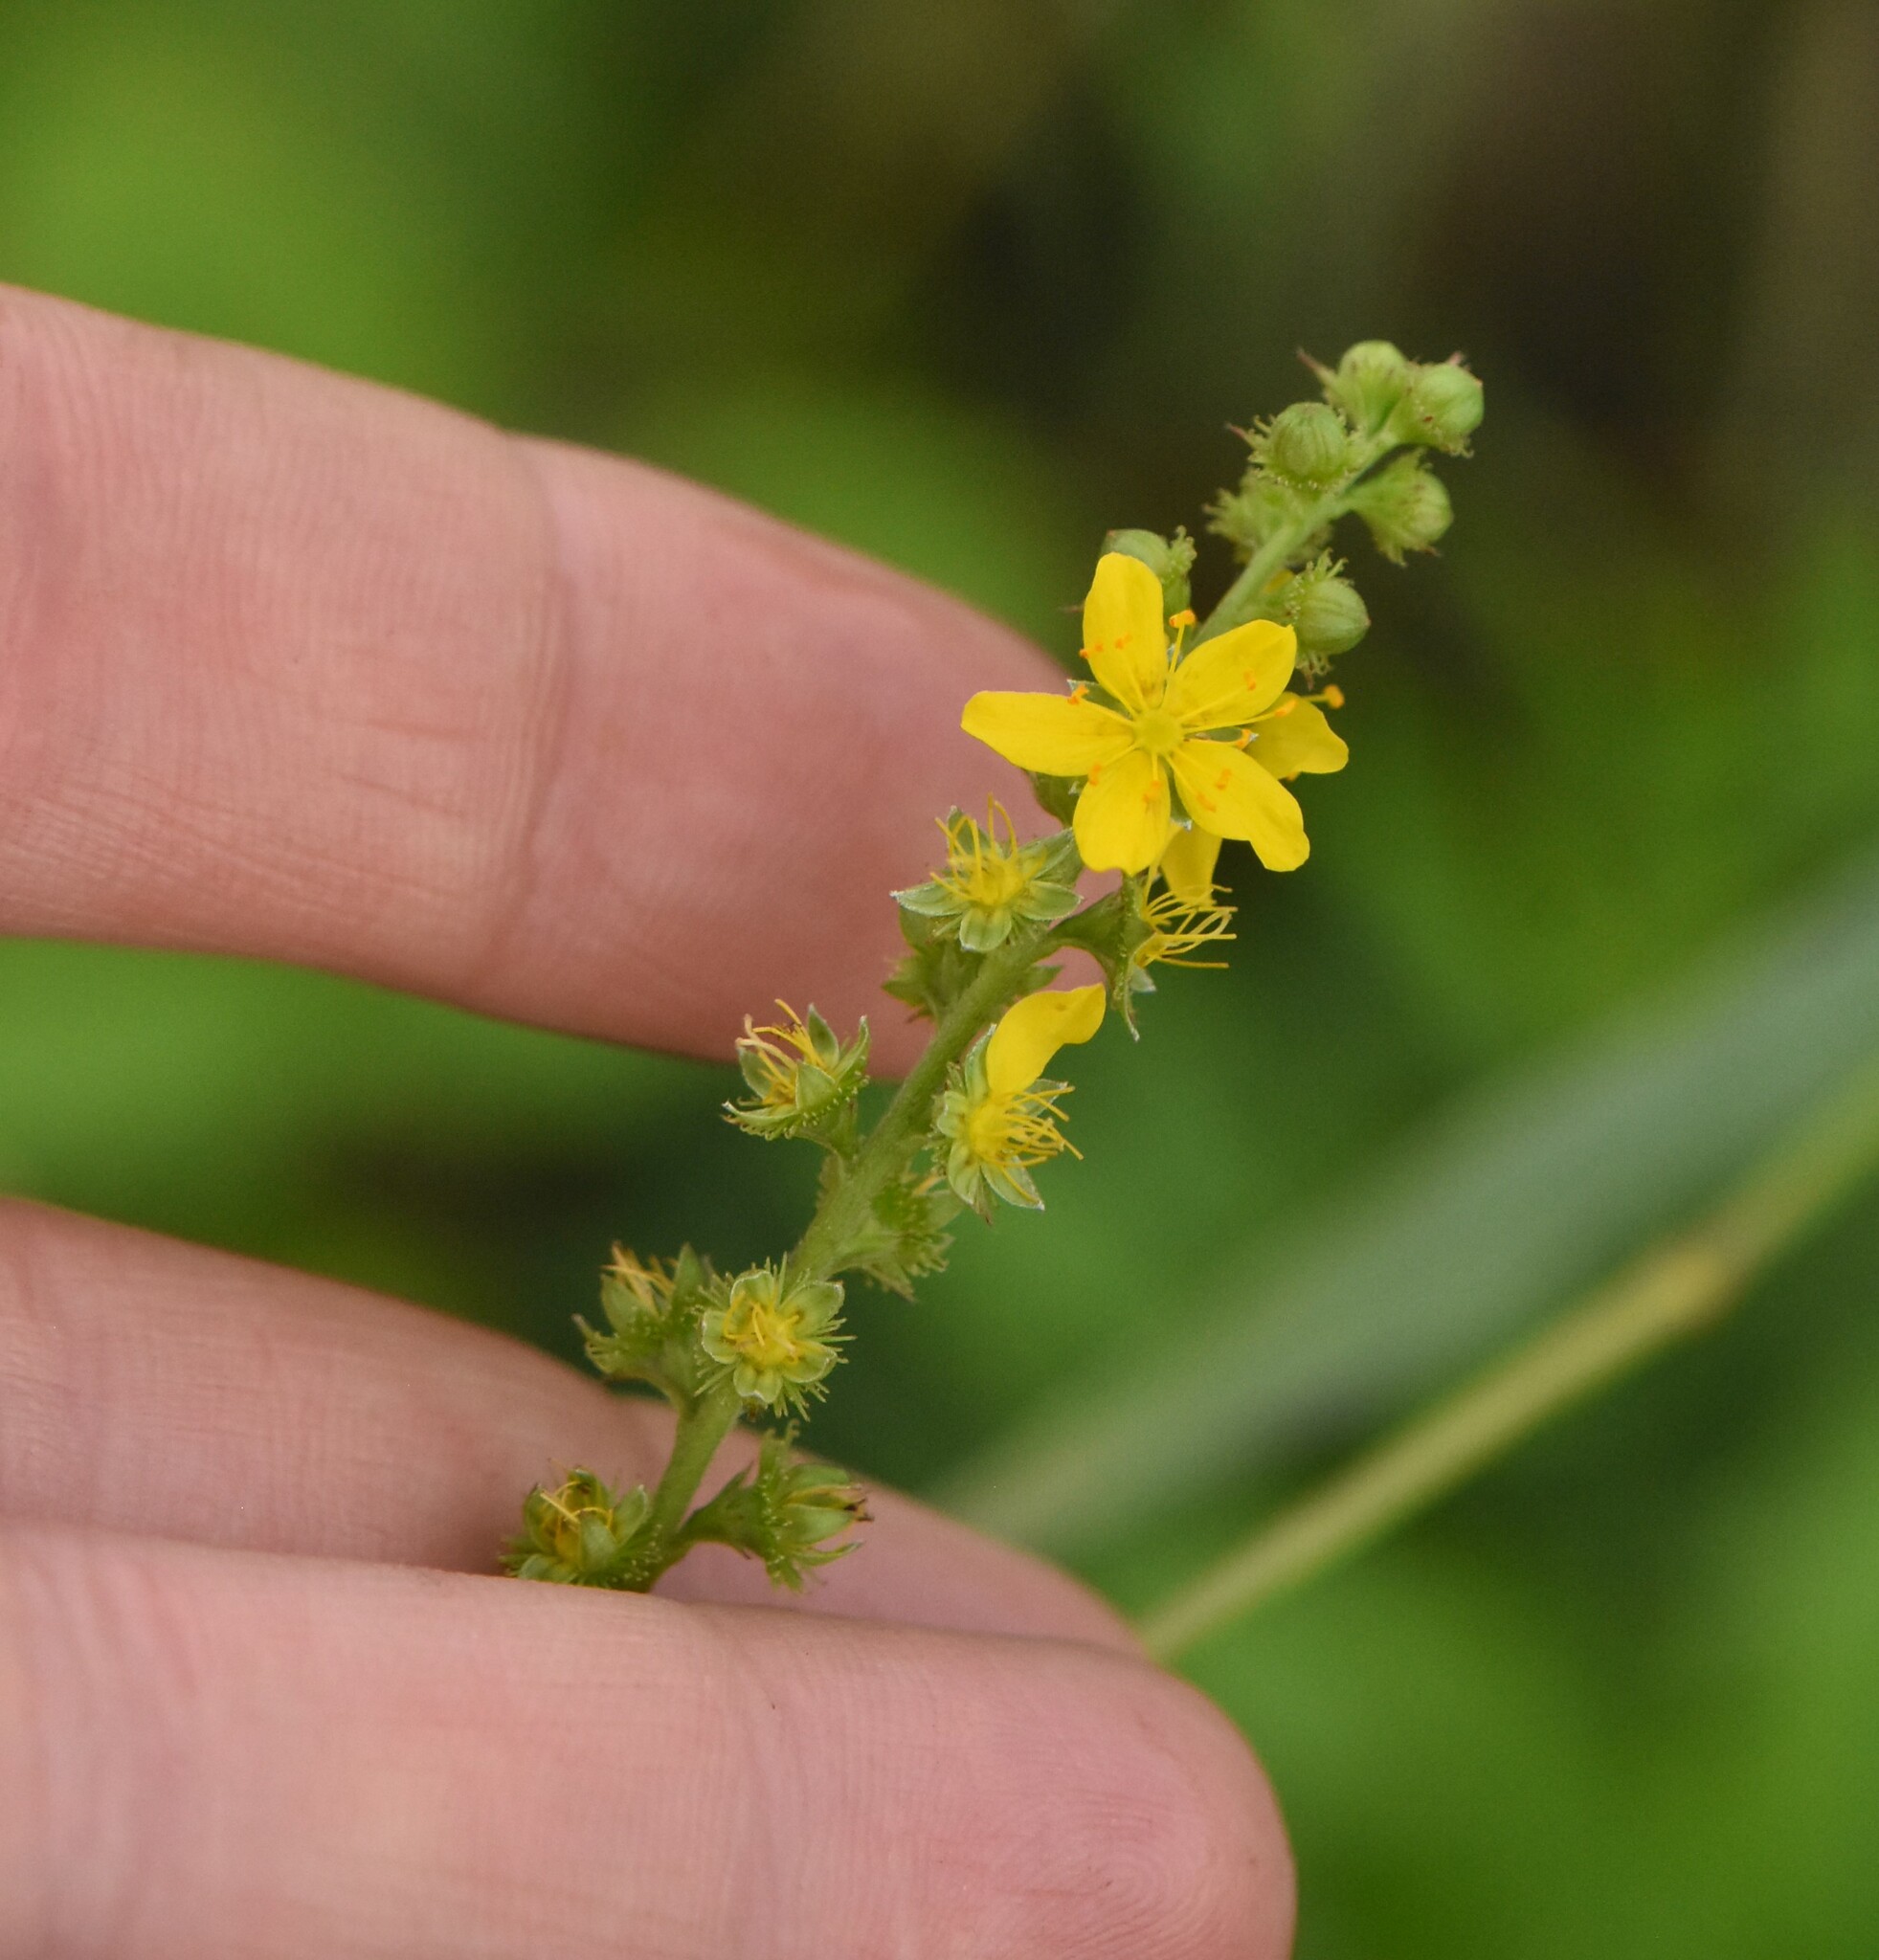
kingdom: Plantae
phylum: Tracheophyta
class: Magnoliopsida
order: Rosales
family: Rosaceae
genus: Agrimonia
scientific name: Agrimonia pilosa
